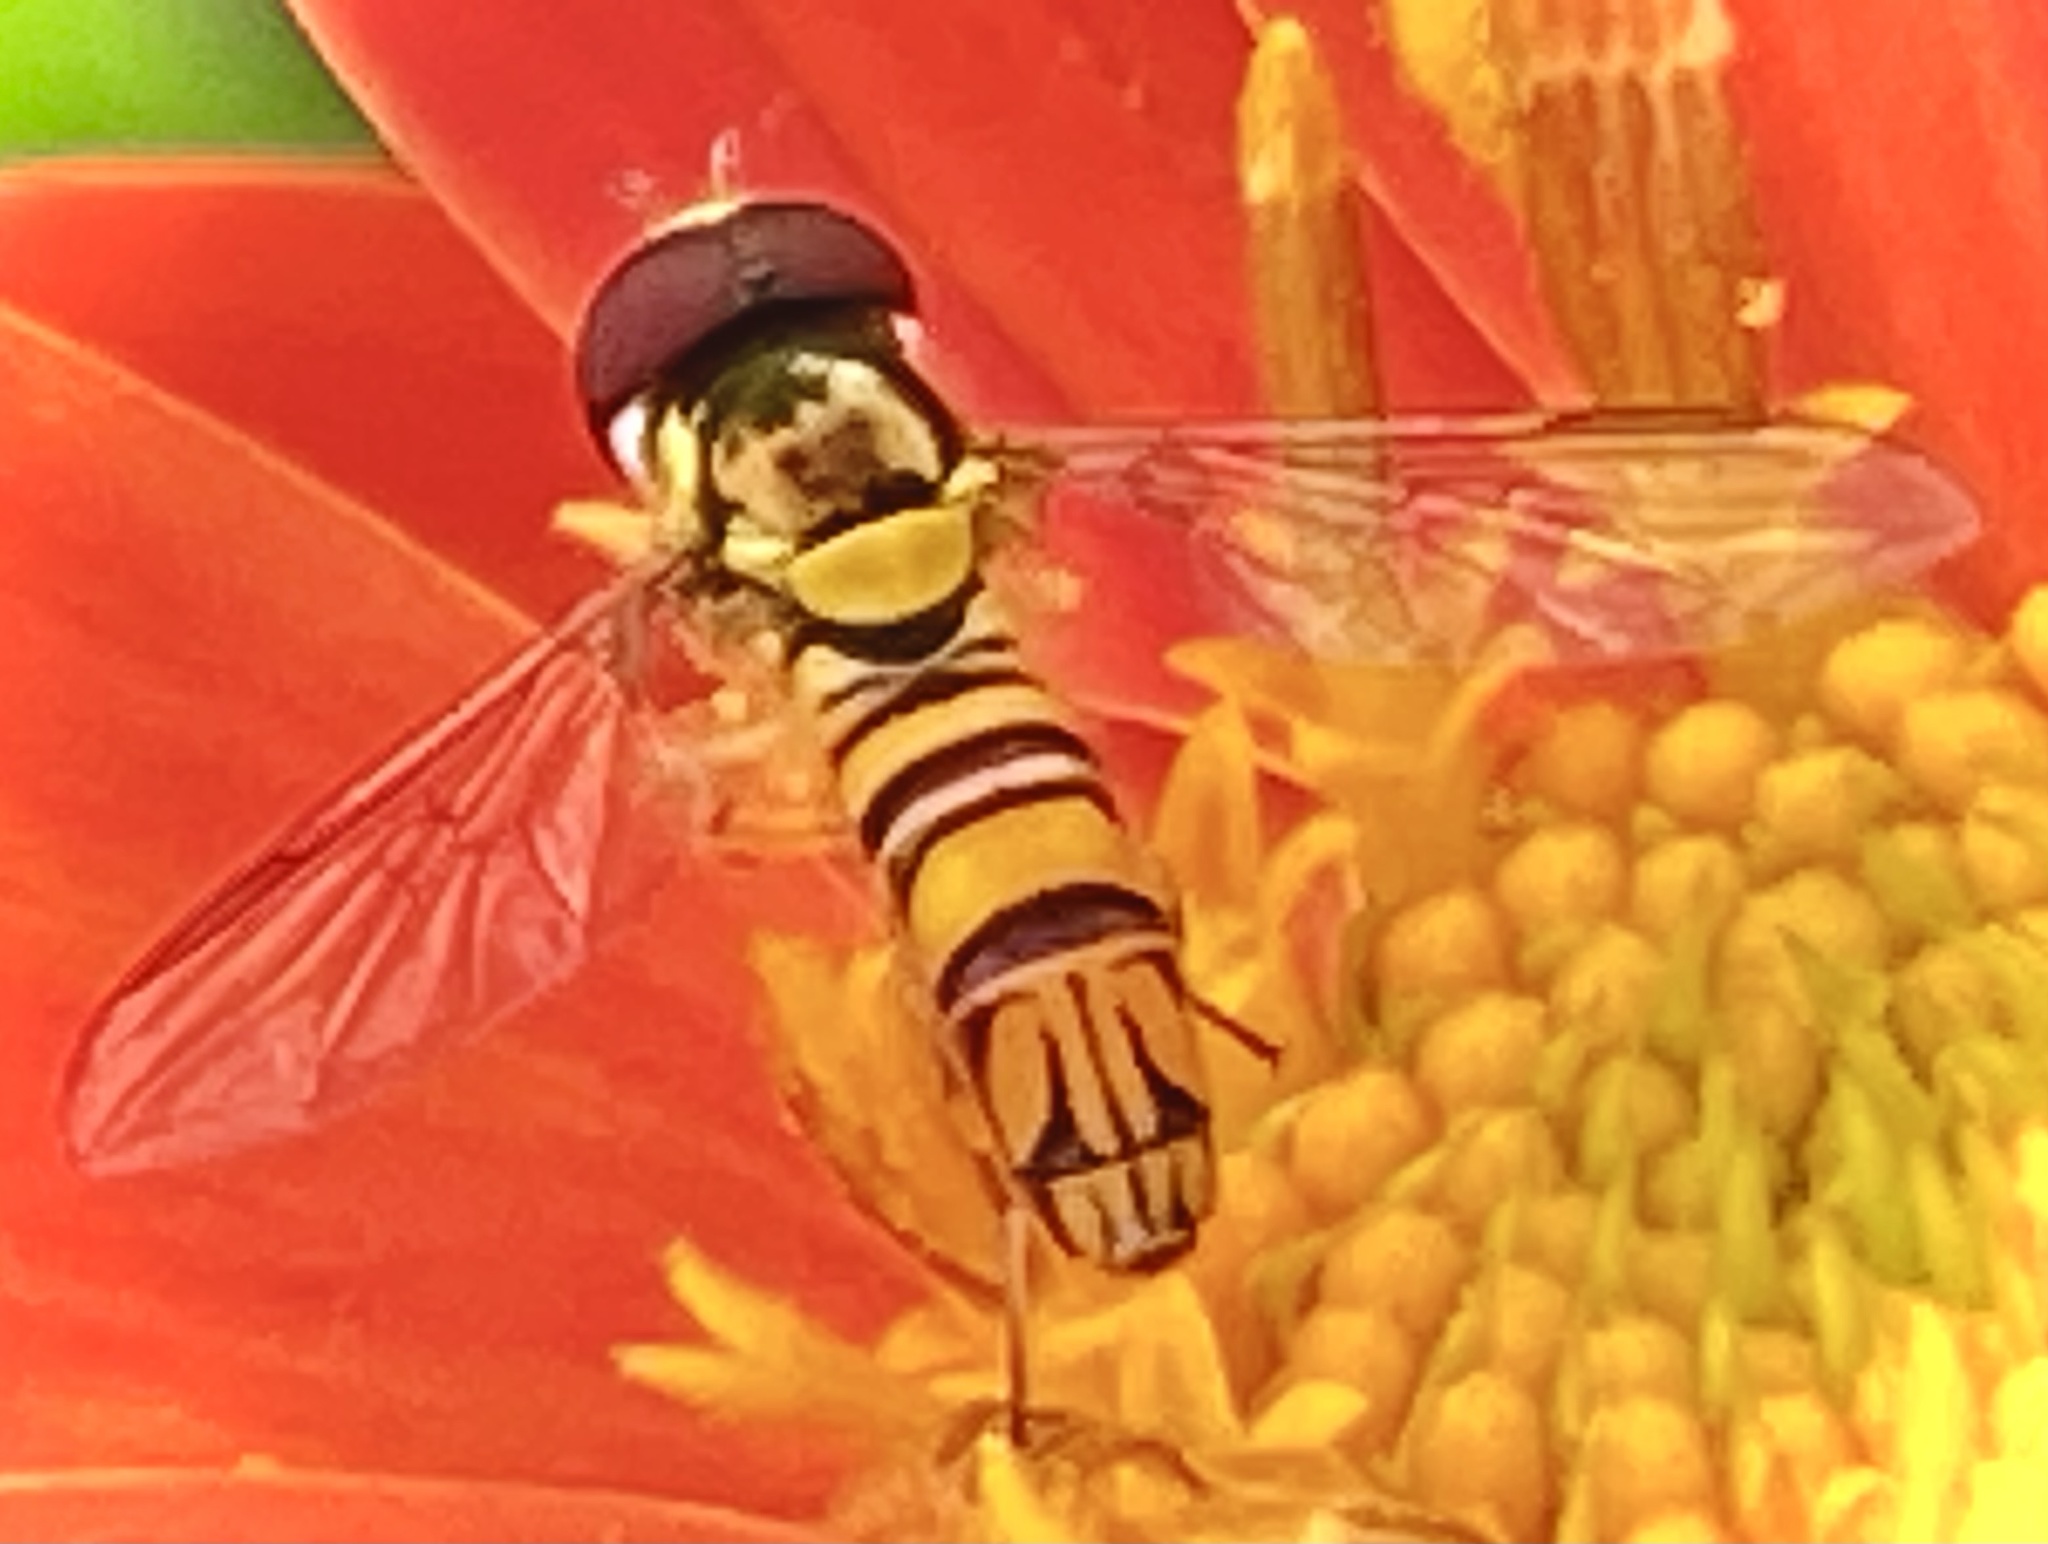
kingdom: Animalia
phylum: Arthropoda
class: Insecta
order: Diptera
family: Syrphidae
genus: Allograpta
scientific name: Allograpta obliqua
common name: Common oblique syrphid
